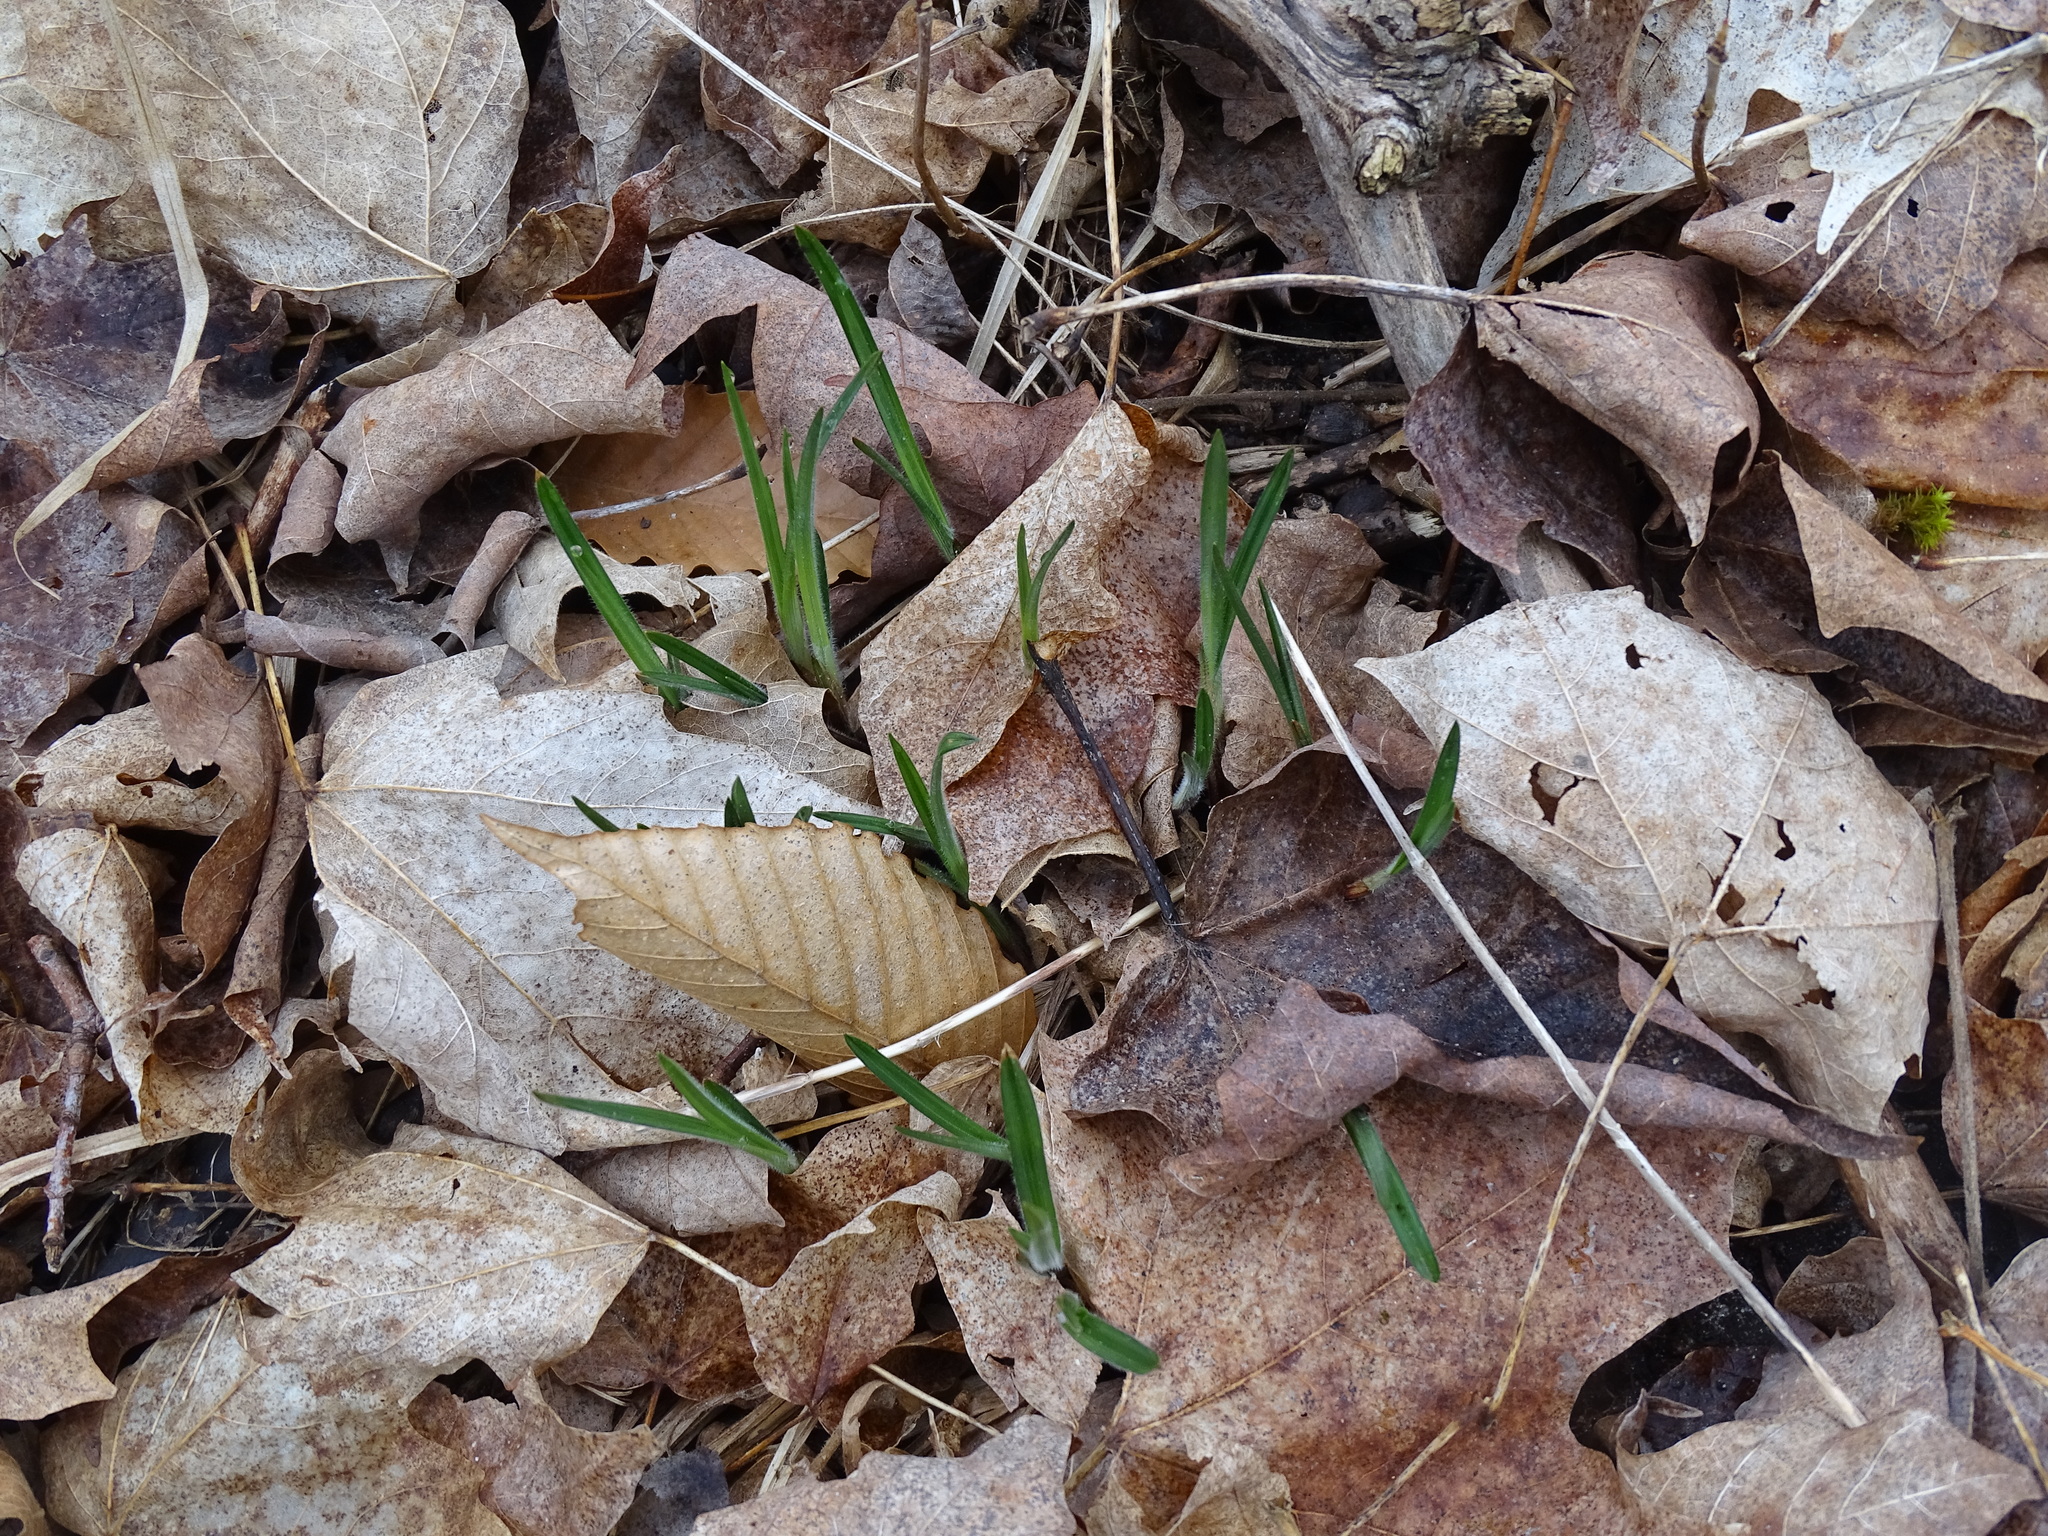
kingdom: Plantae
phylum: Tracheophyta
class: Liliopsida
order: Poales
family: Cyperaceae
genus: Carex
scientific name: Carex hirtifolia
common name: Hairy sedge
